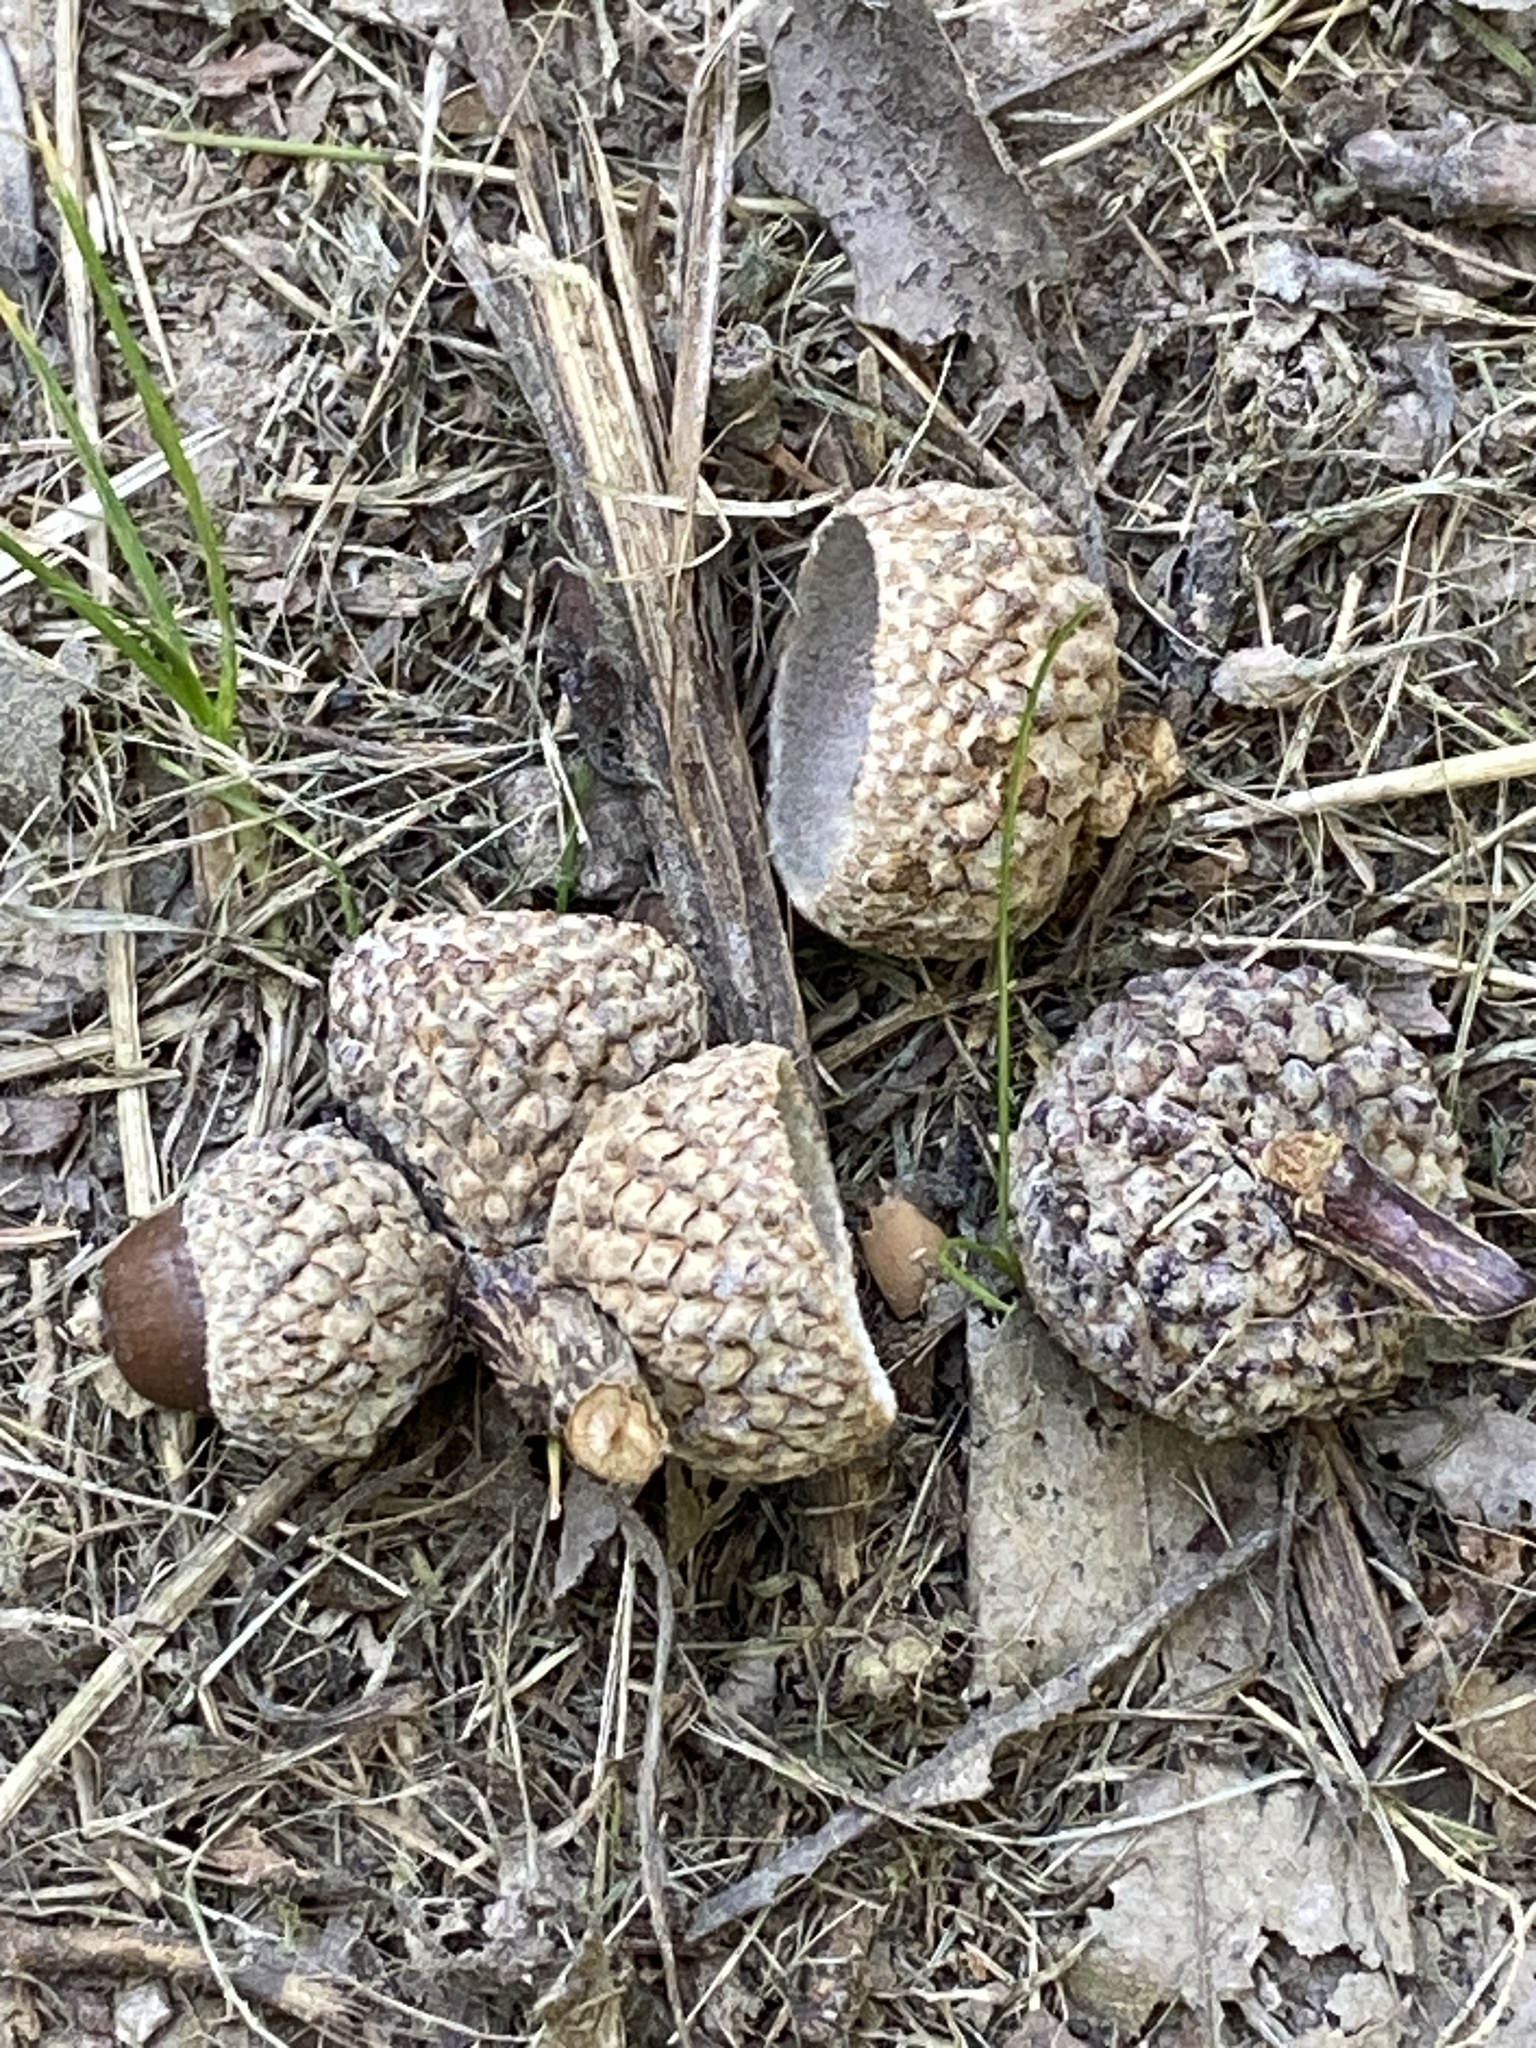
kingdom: Plantae
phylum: Tracheophyta
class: Magnoliopsida
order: Fagales
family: Fagaceae
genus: Quercus
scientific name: Quercus alba
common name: White oak
